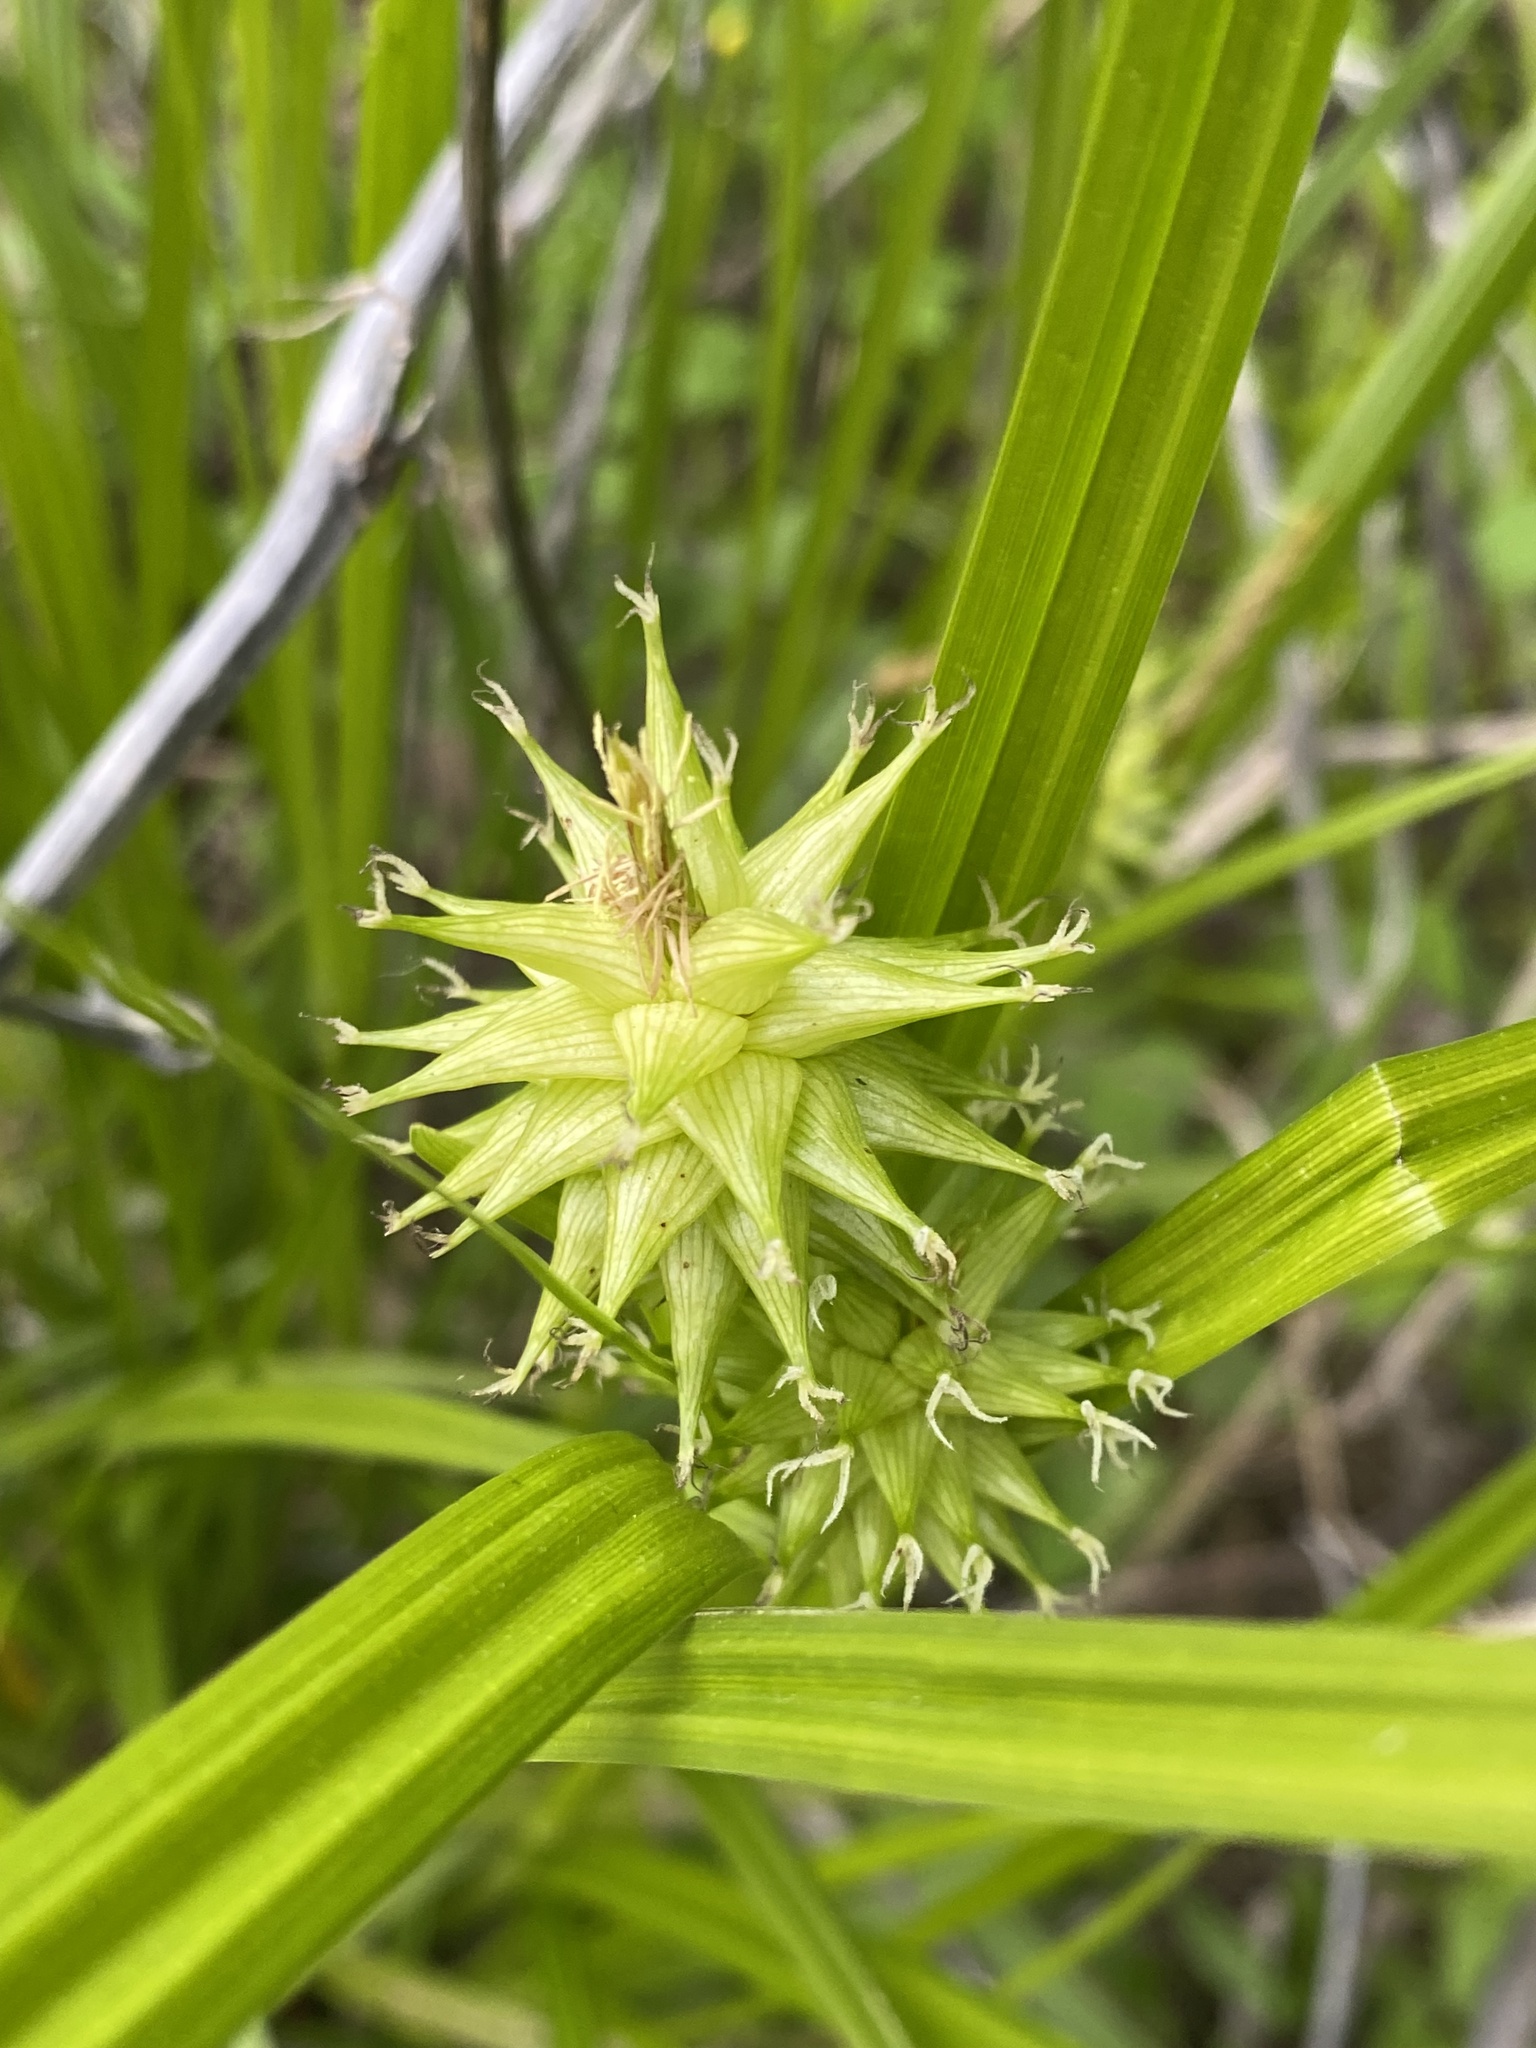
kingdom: Plantae
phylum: Tracheophyta
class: Liliopsida
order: Poales
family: Cyperaceae
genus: Carex
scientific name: Carex grayi
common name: Asa gray's sedge
